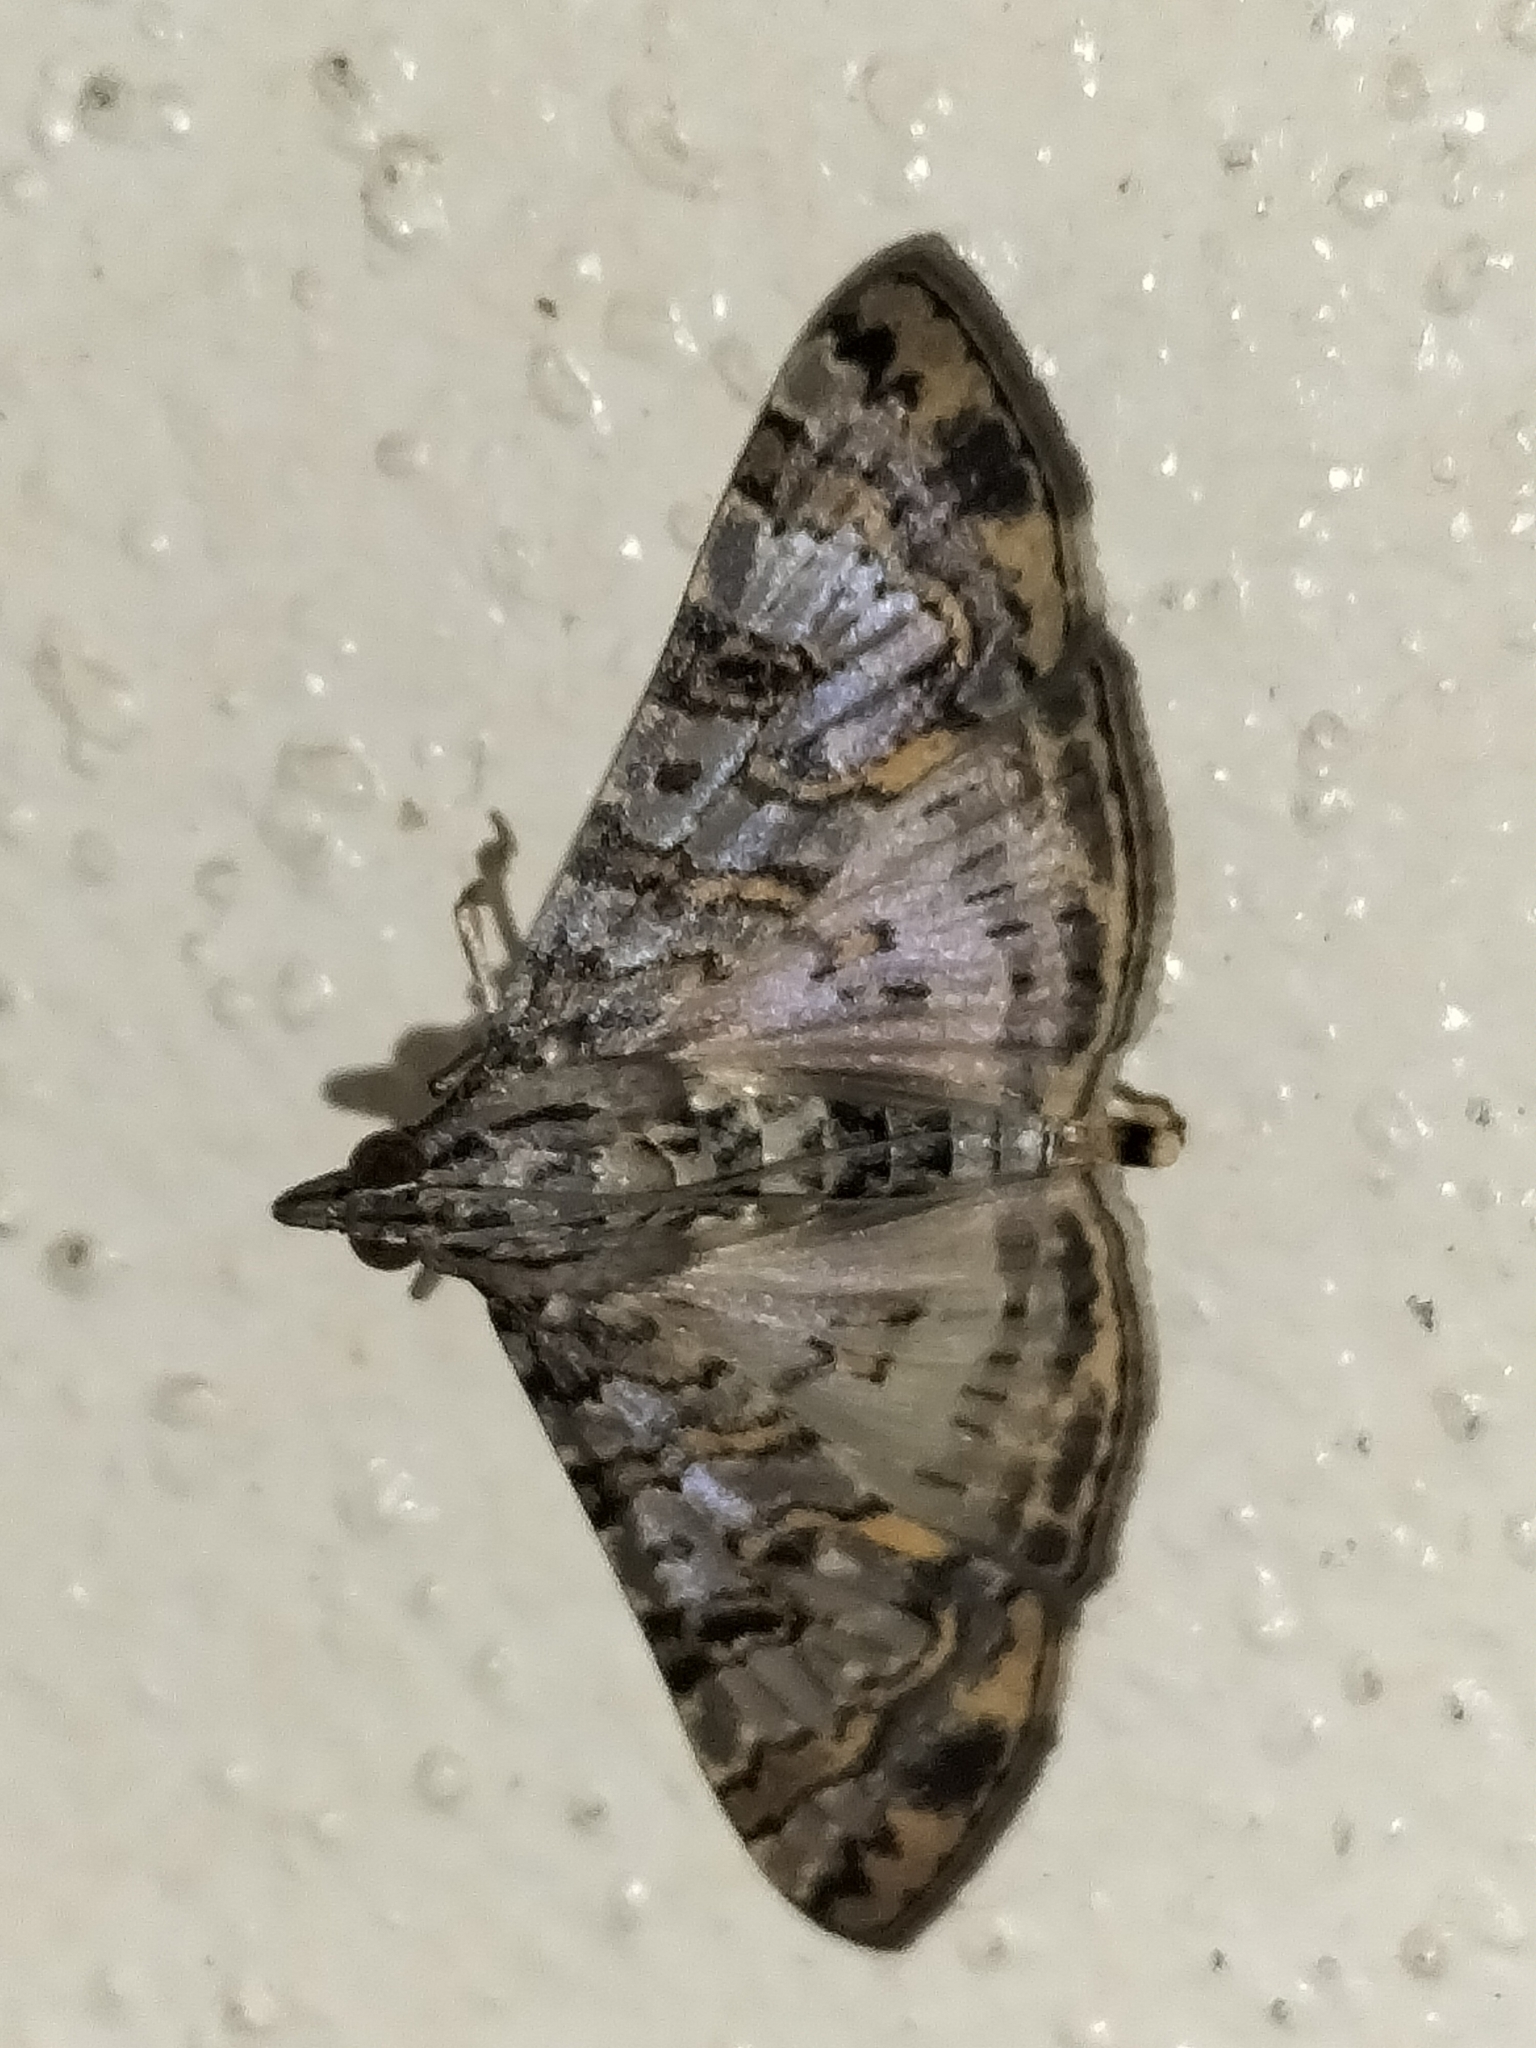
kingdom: Animalia
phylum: Arthropoda
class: Insecta
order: Lepidoptera
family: Crambidae
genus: Dysallacta
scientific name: Dysallacta negatalis
